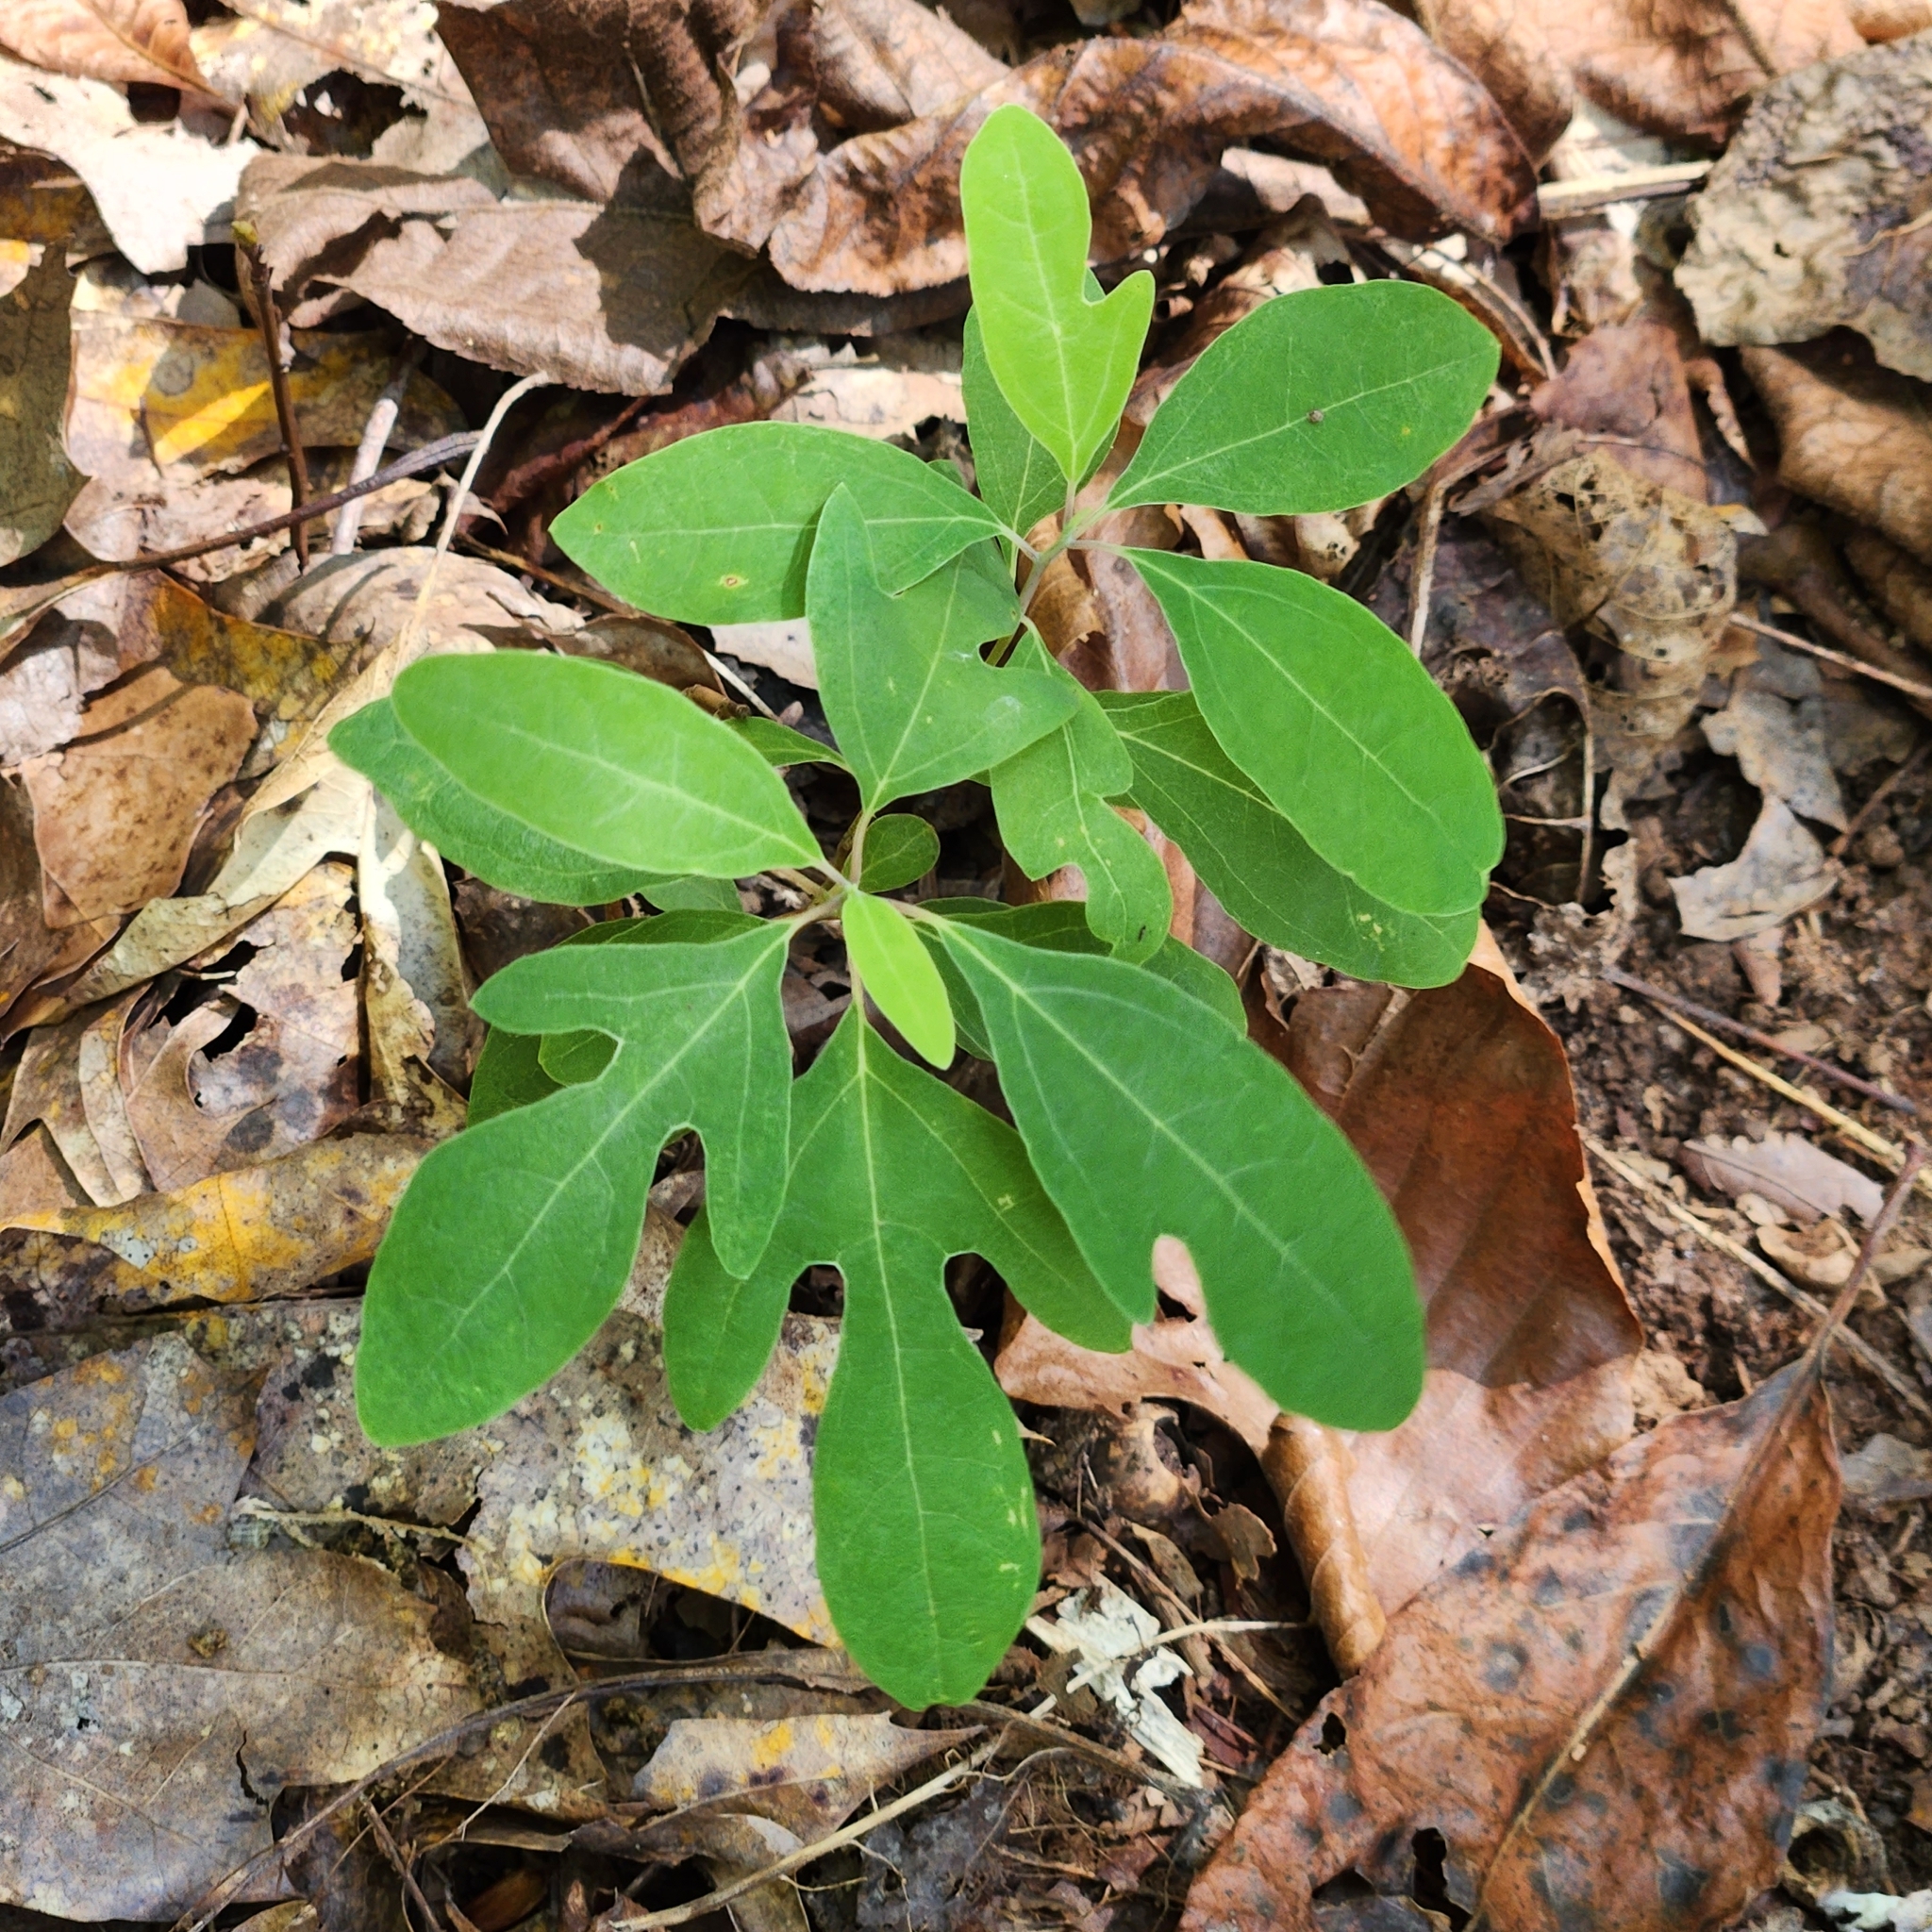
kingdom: Plantae
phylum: Tracheophyta
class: Magnoliopsida
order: Laurales
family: Lauraceae
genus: Sassafras
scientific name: Sassafras albidum
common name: Sassafras
